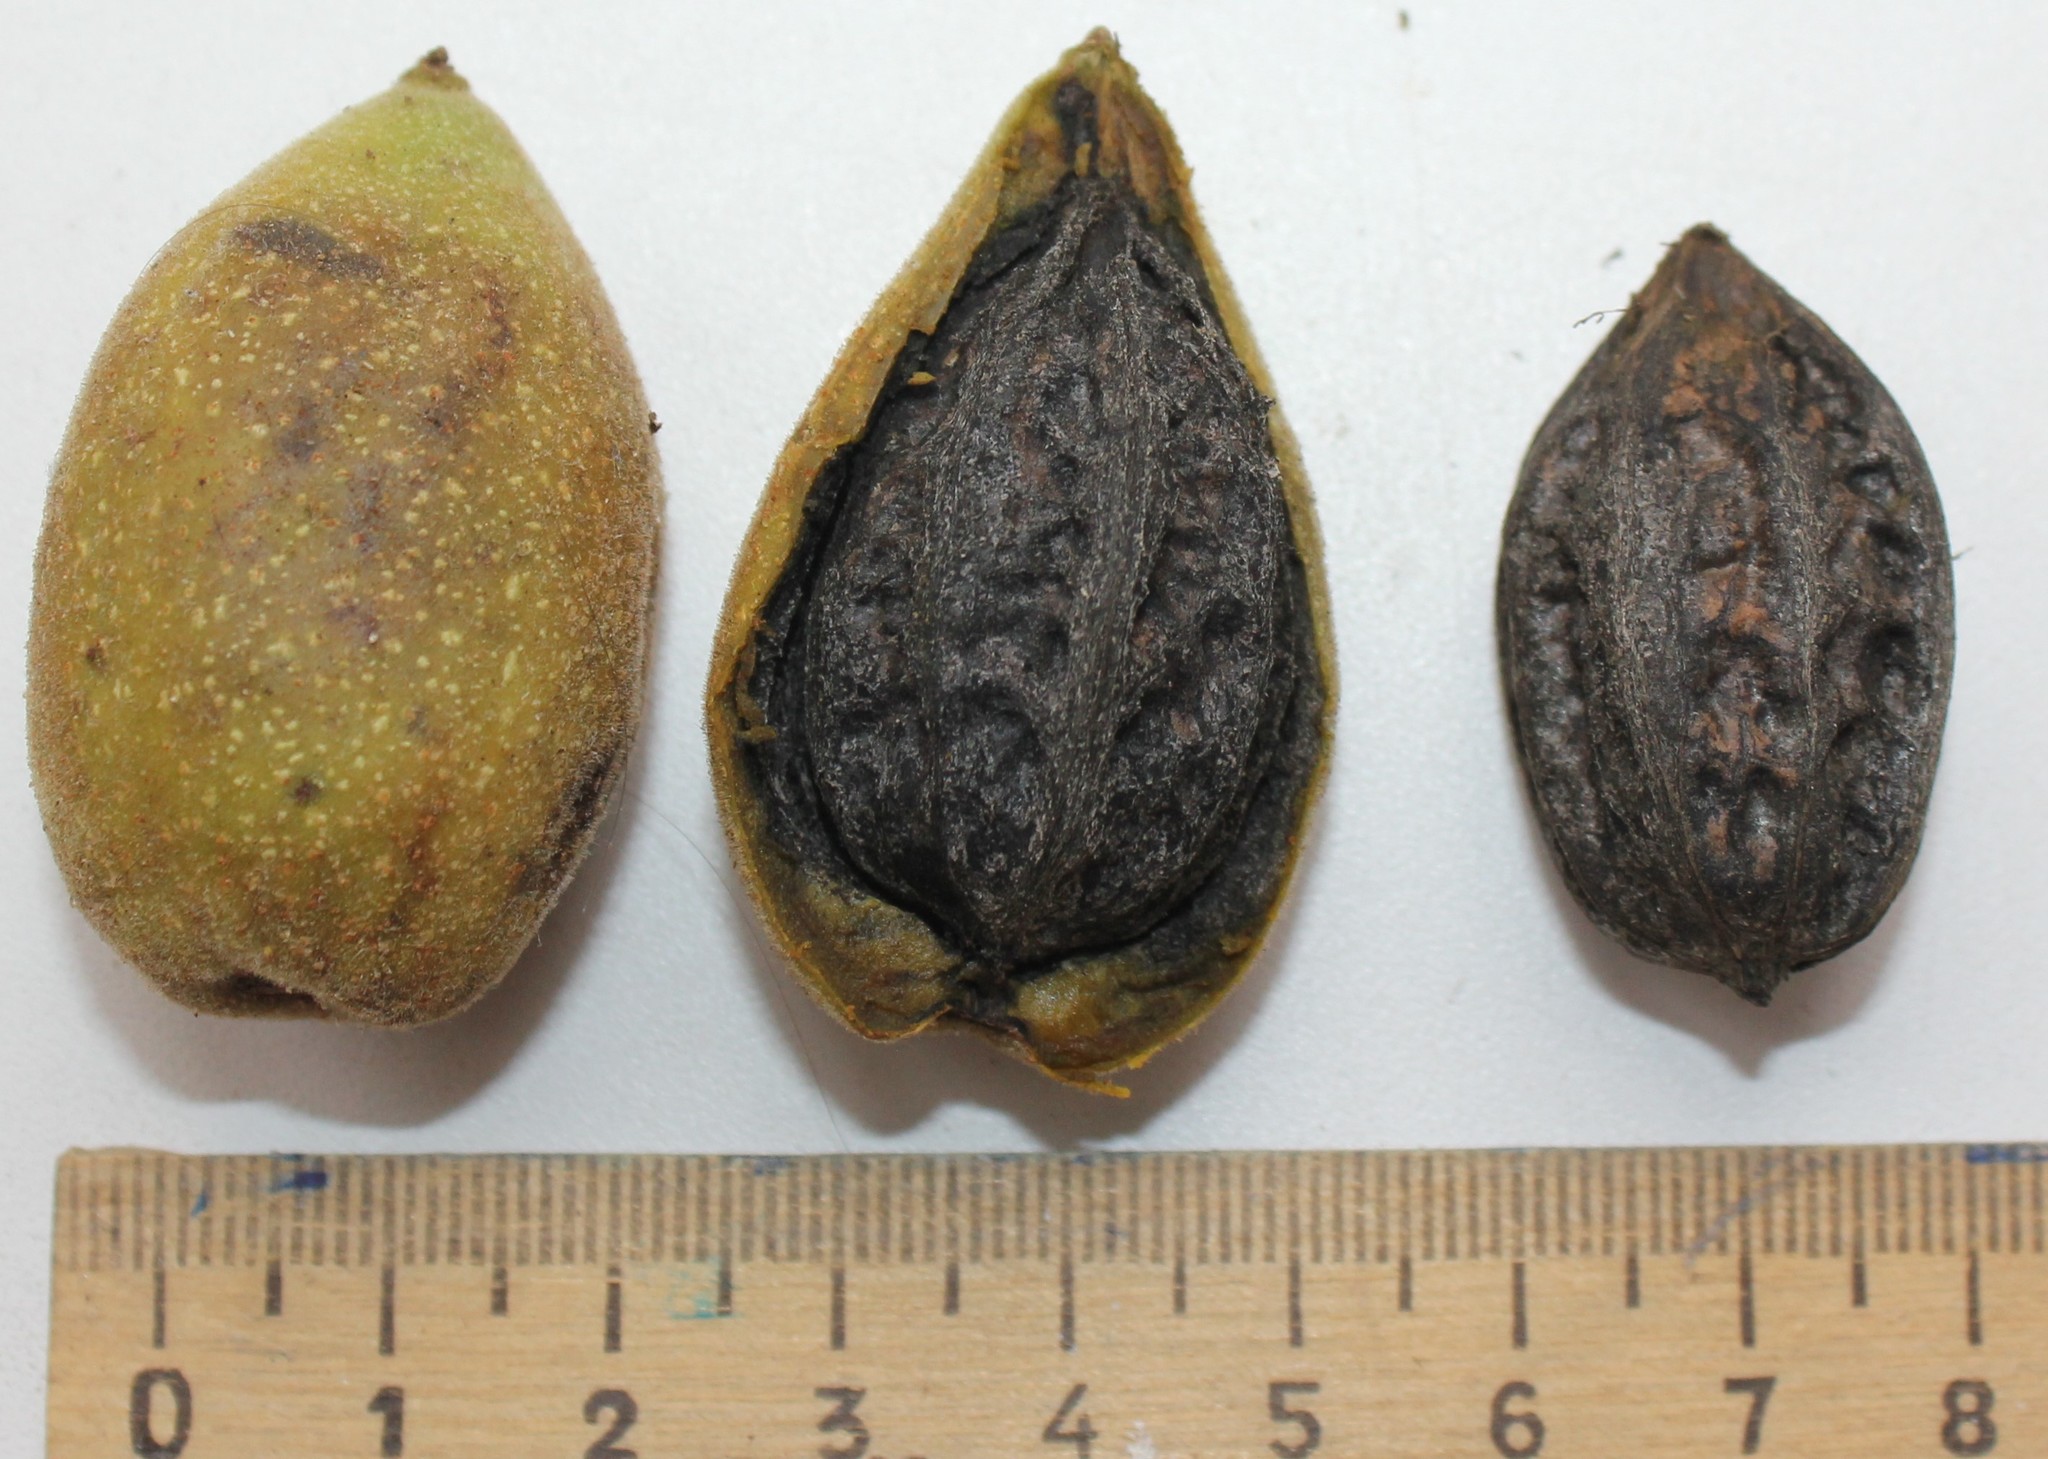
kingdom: Plantae
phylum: Tracheophyta
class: Magnoliopsida
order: Fagales
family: Juglandaceae
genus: Juglans
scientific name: Juglans mandshurica
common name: Manchurian walnut
